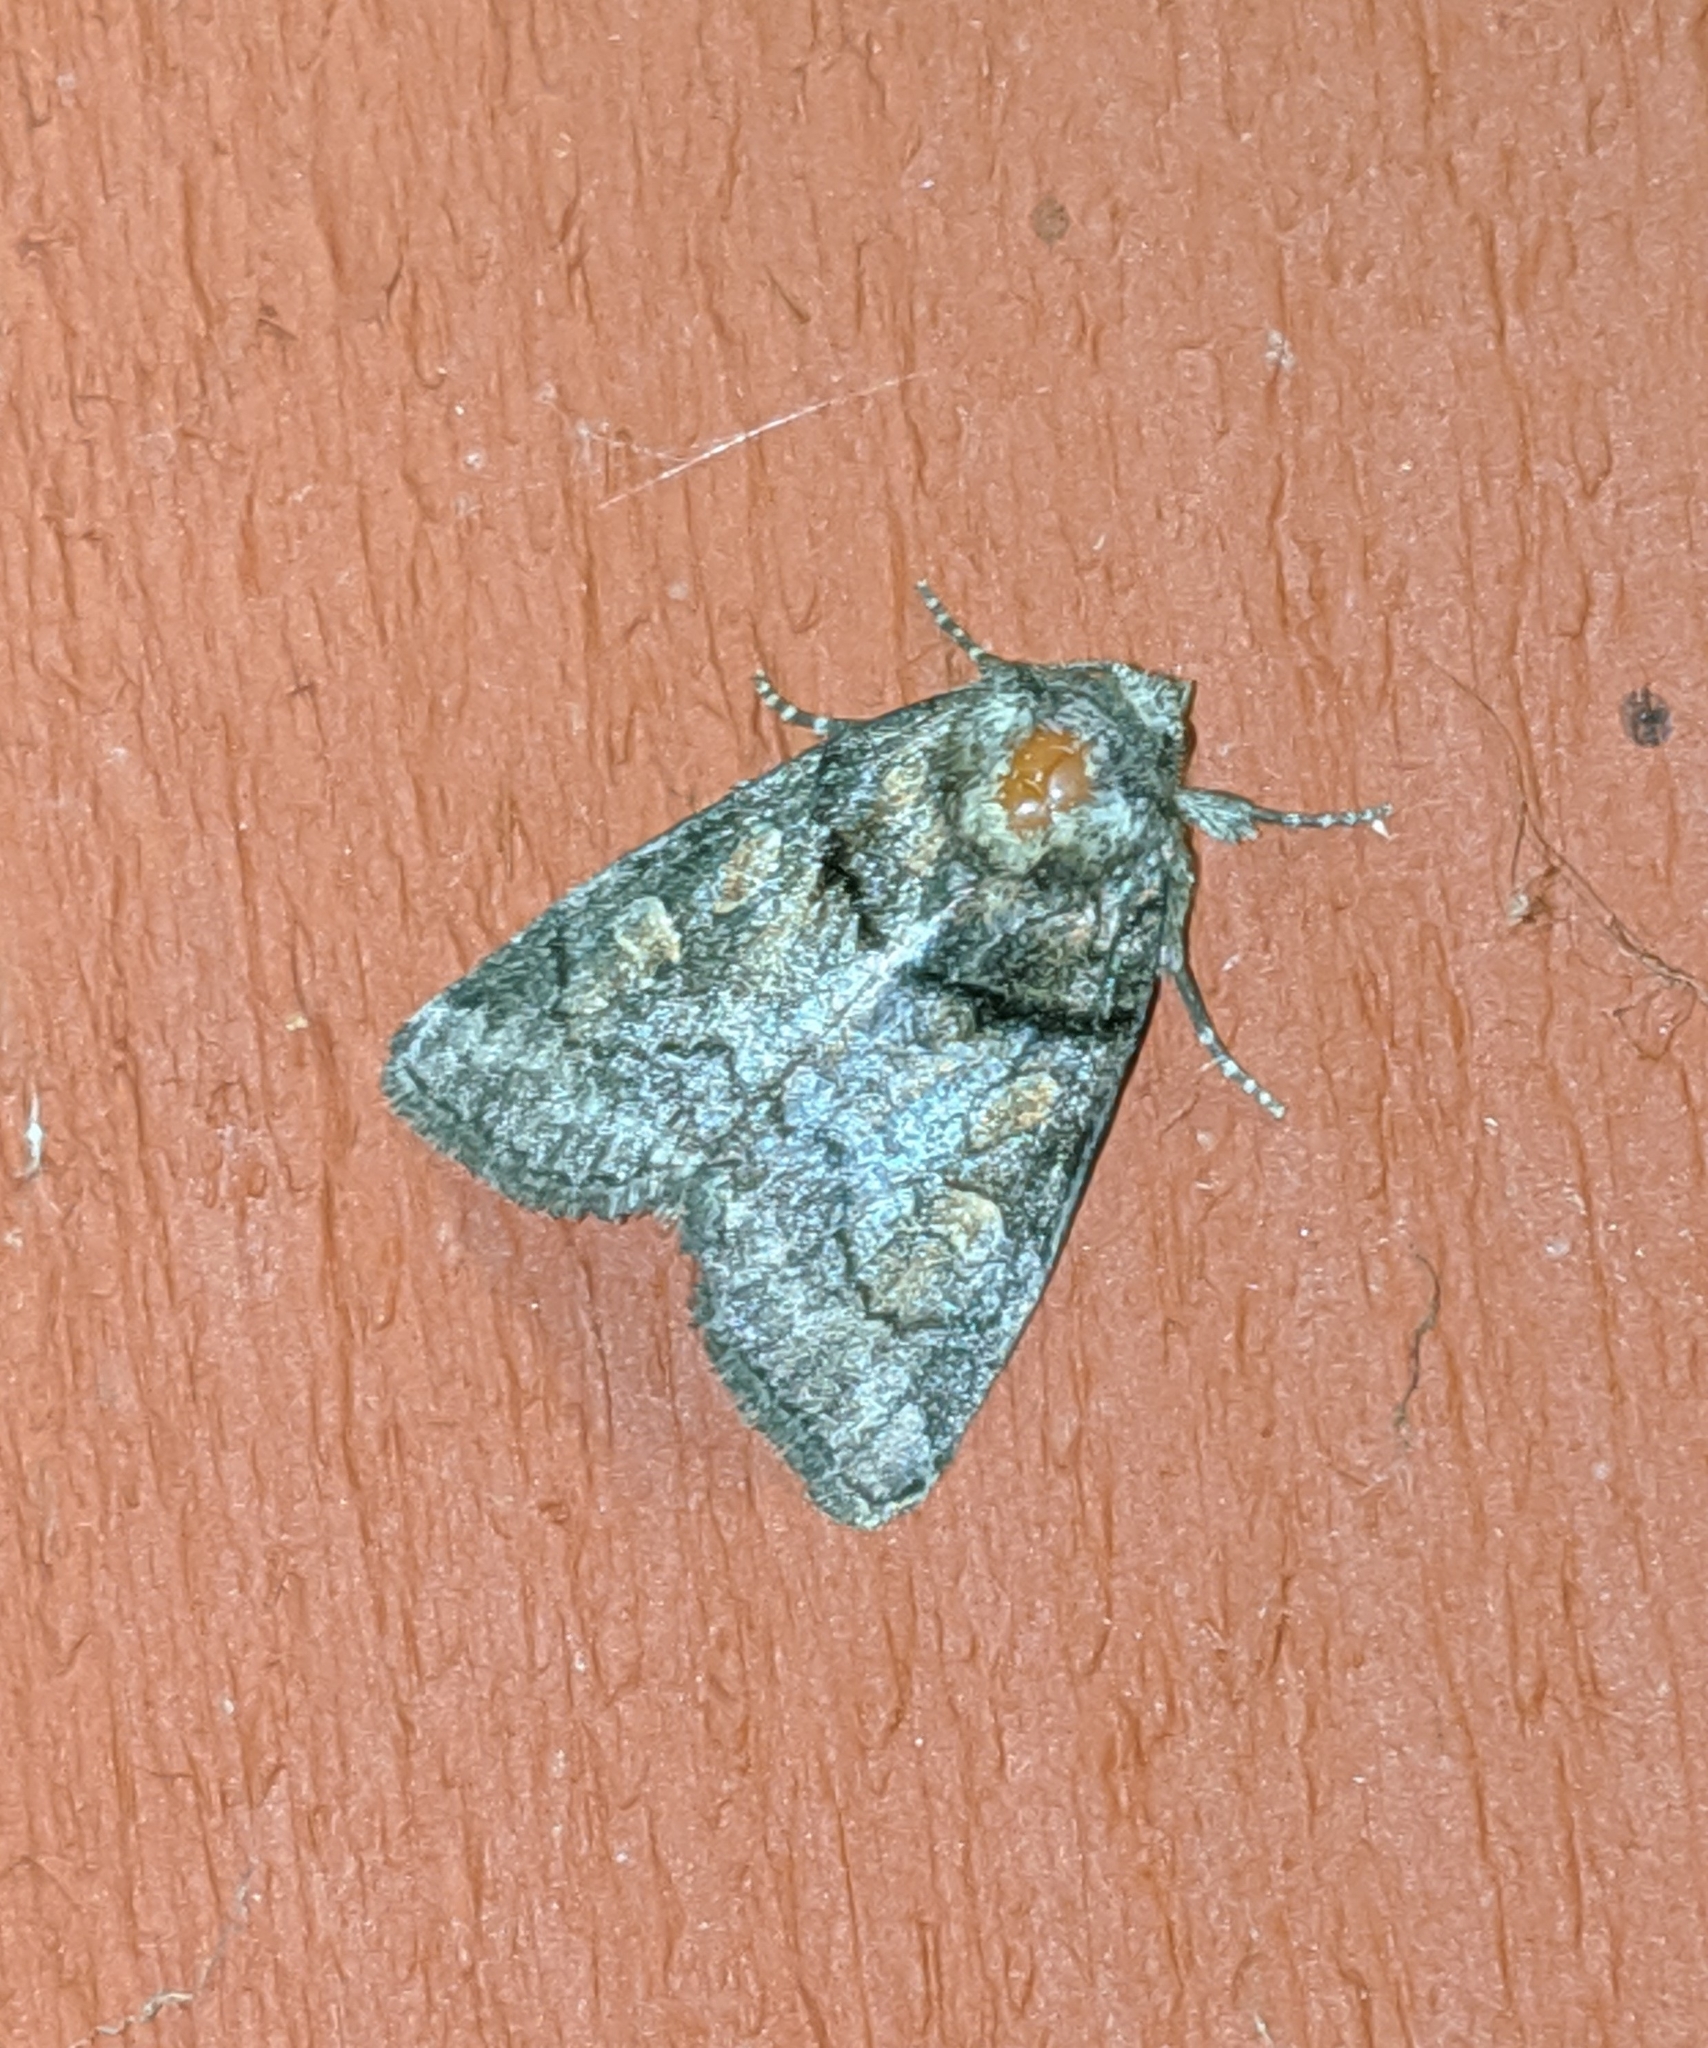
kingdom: Animalia
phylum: Arthropoda
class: Insecta
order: Lepidoptera
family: Noctuidae
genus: Cosmia
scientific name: Cosmia praeacuta
